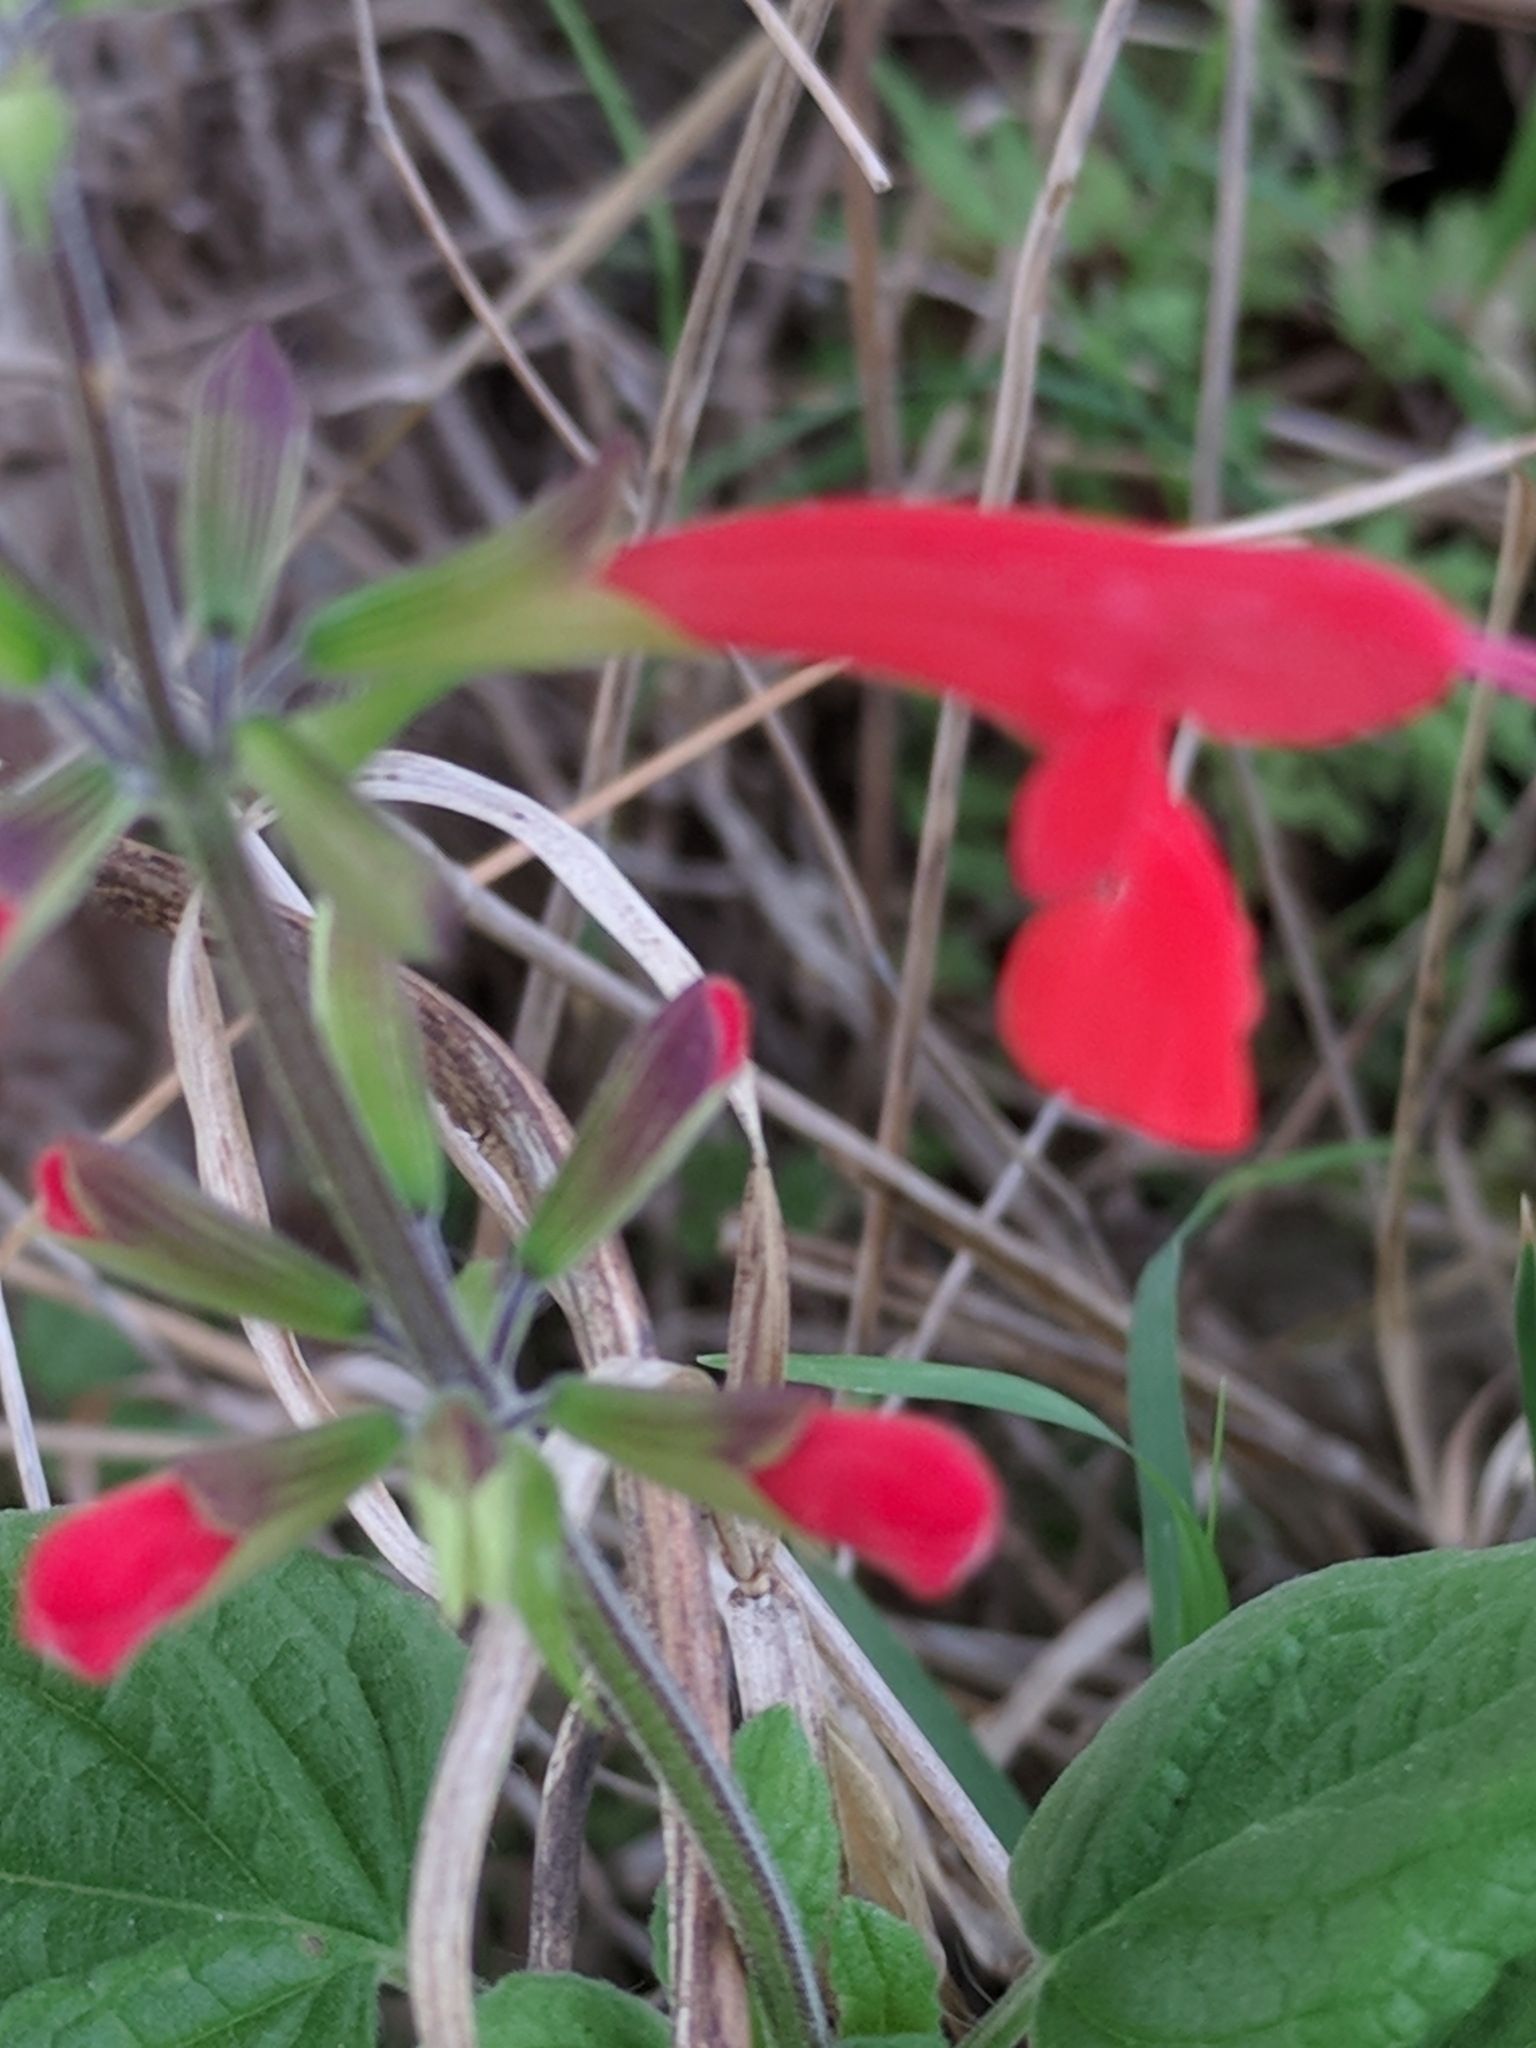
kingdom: Plantae
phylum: Tracheophyta
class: Magnoliopsida
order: Lamiales
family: Lamiaceae
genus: Salvia
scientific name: Salvia coccinea
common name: Blood sage
